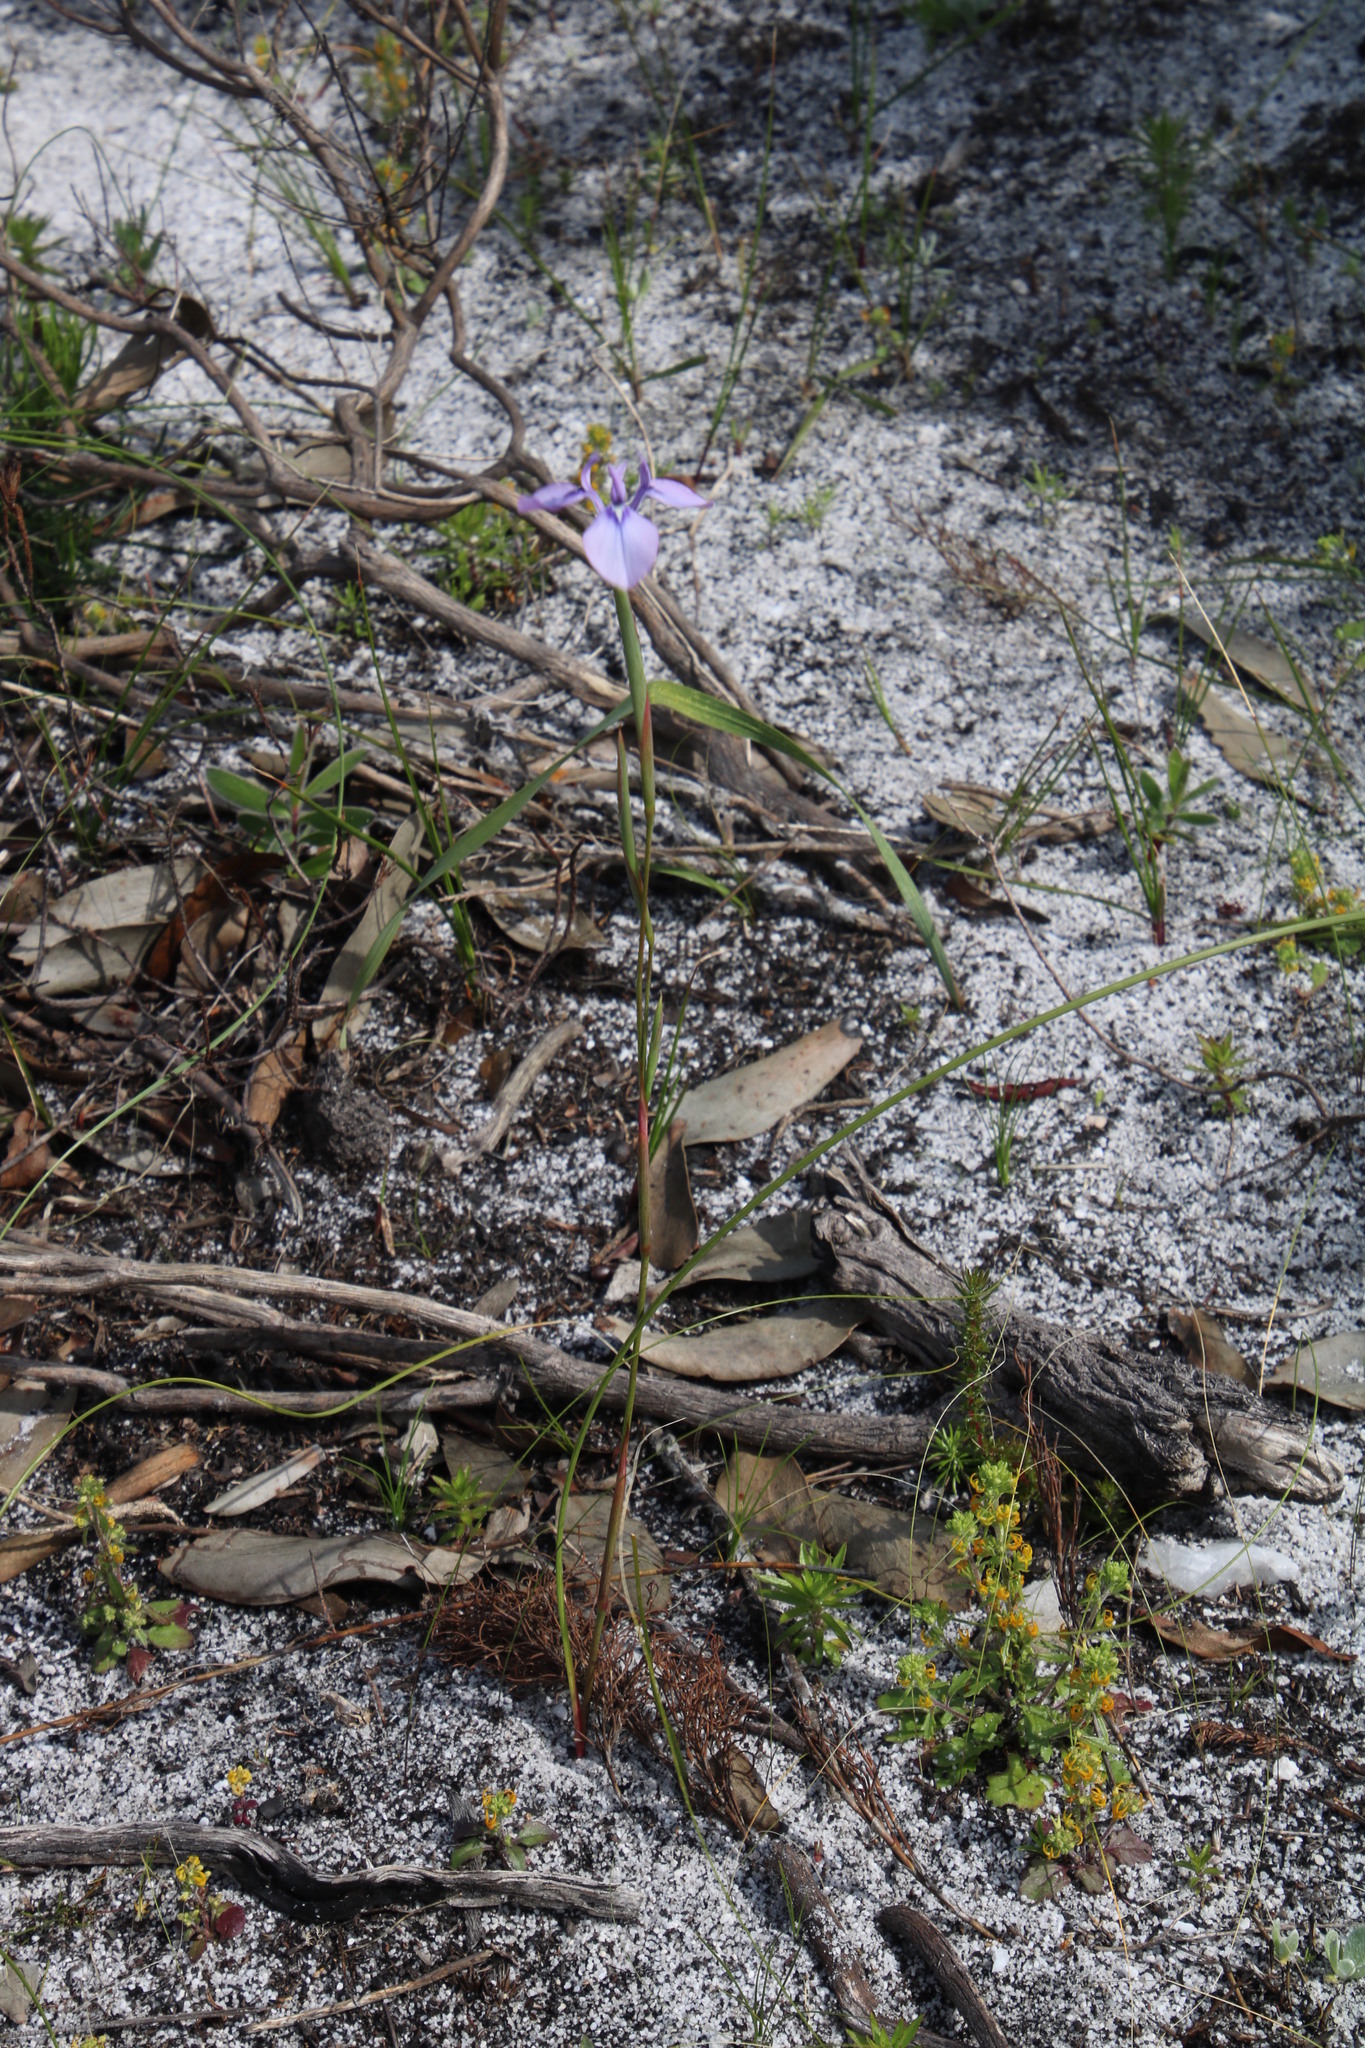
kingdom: Plantae
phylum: Tracheophyta
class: Liliopsida
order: Asparagales
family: Iridaceae
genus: Moraea
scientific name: Moraea tripetala
